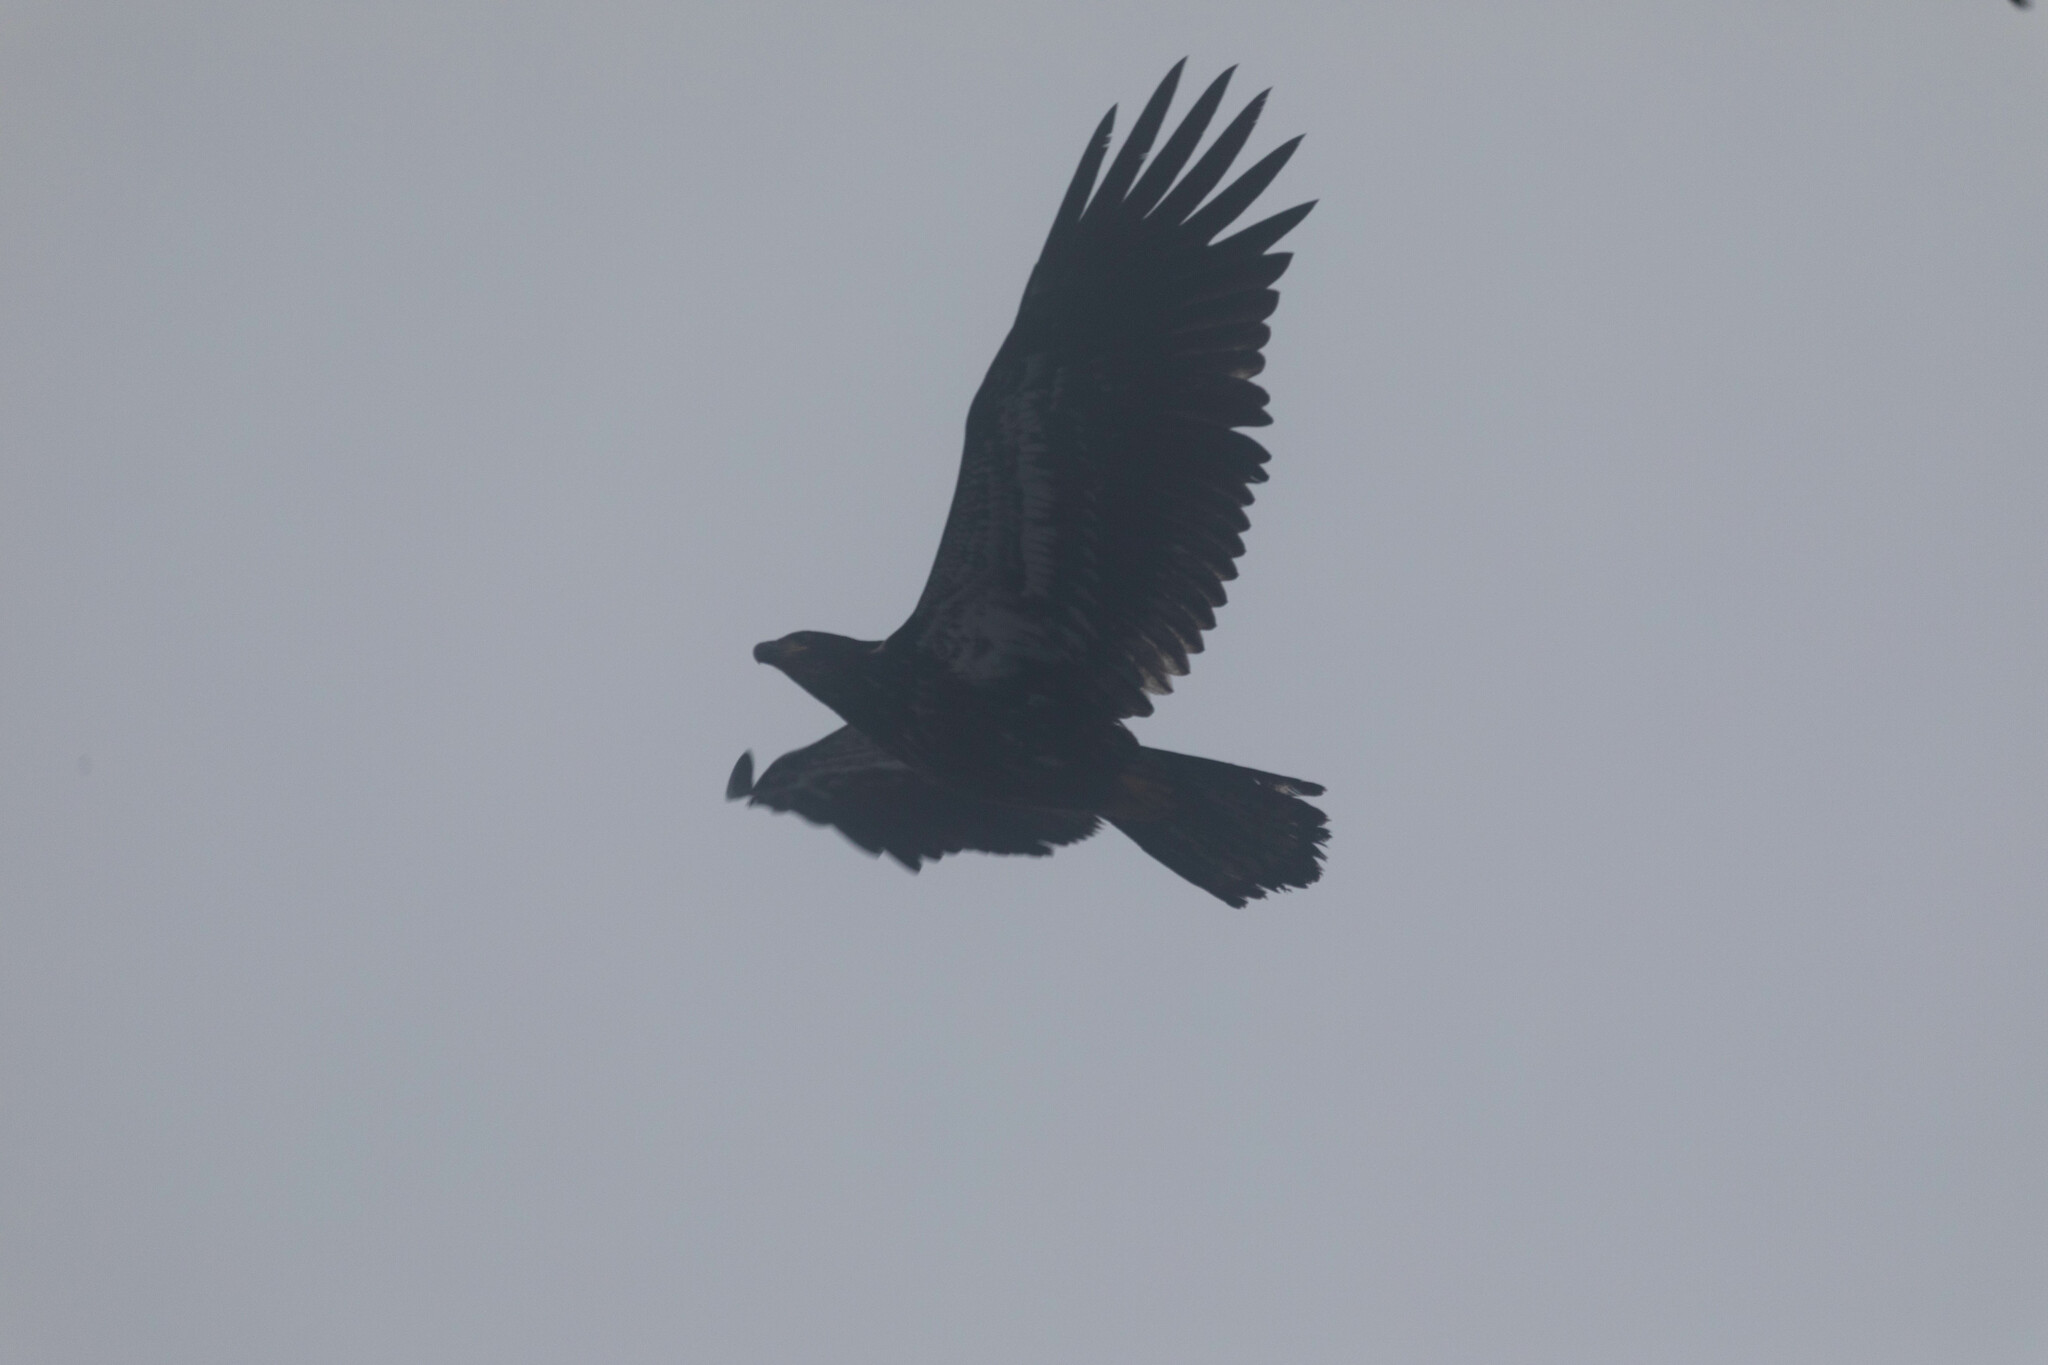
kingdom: Animalia
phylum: Chordata
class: Aves
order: Accipitriformes
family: Accipitridae
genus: Haliaeetus
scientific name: Haliaeetus leucocephalus
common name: Bald eagle
